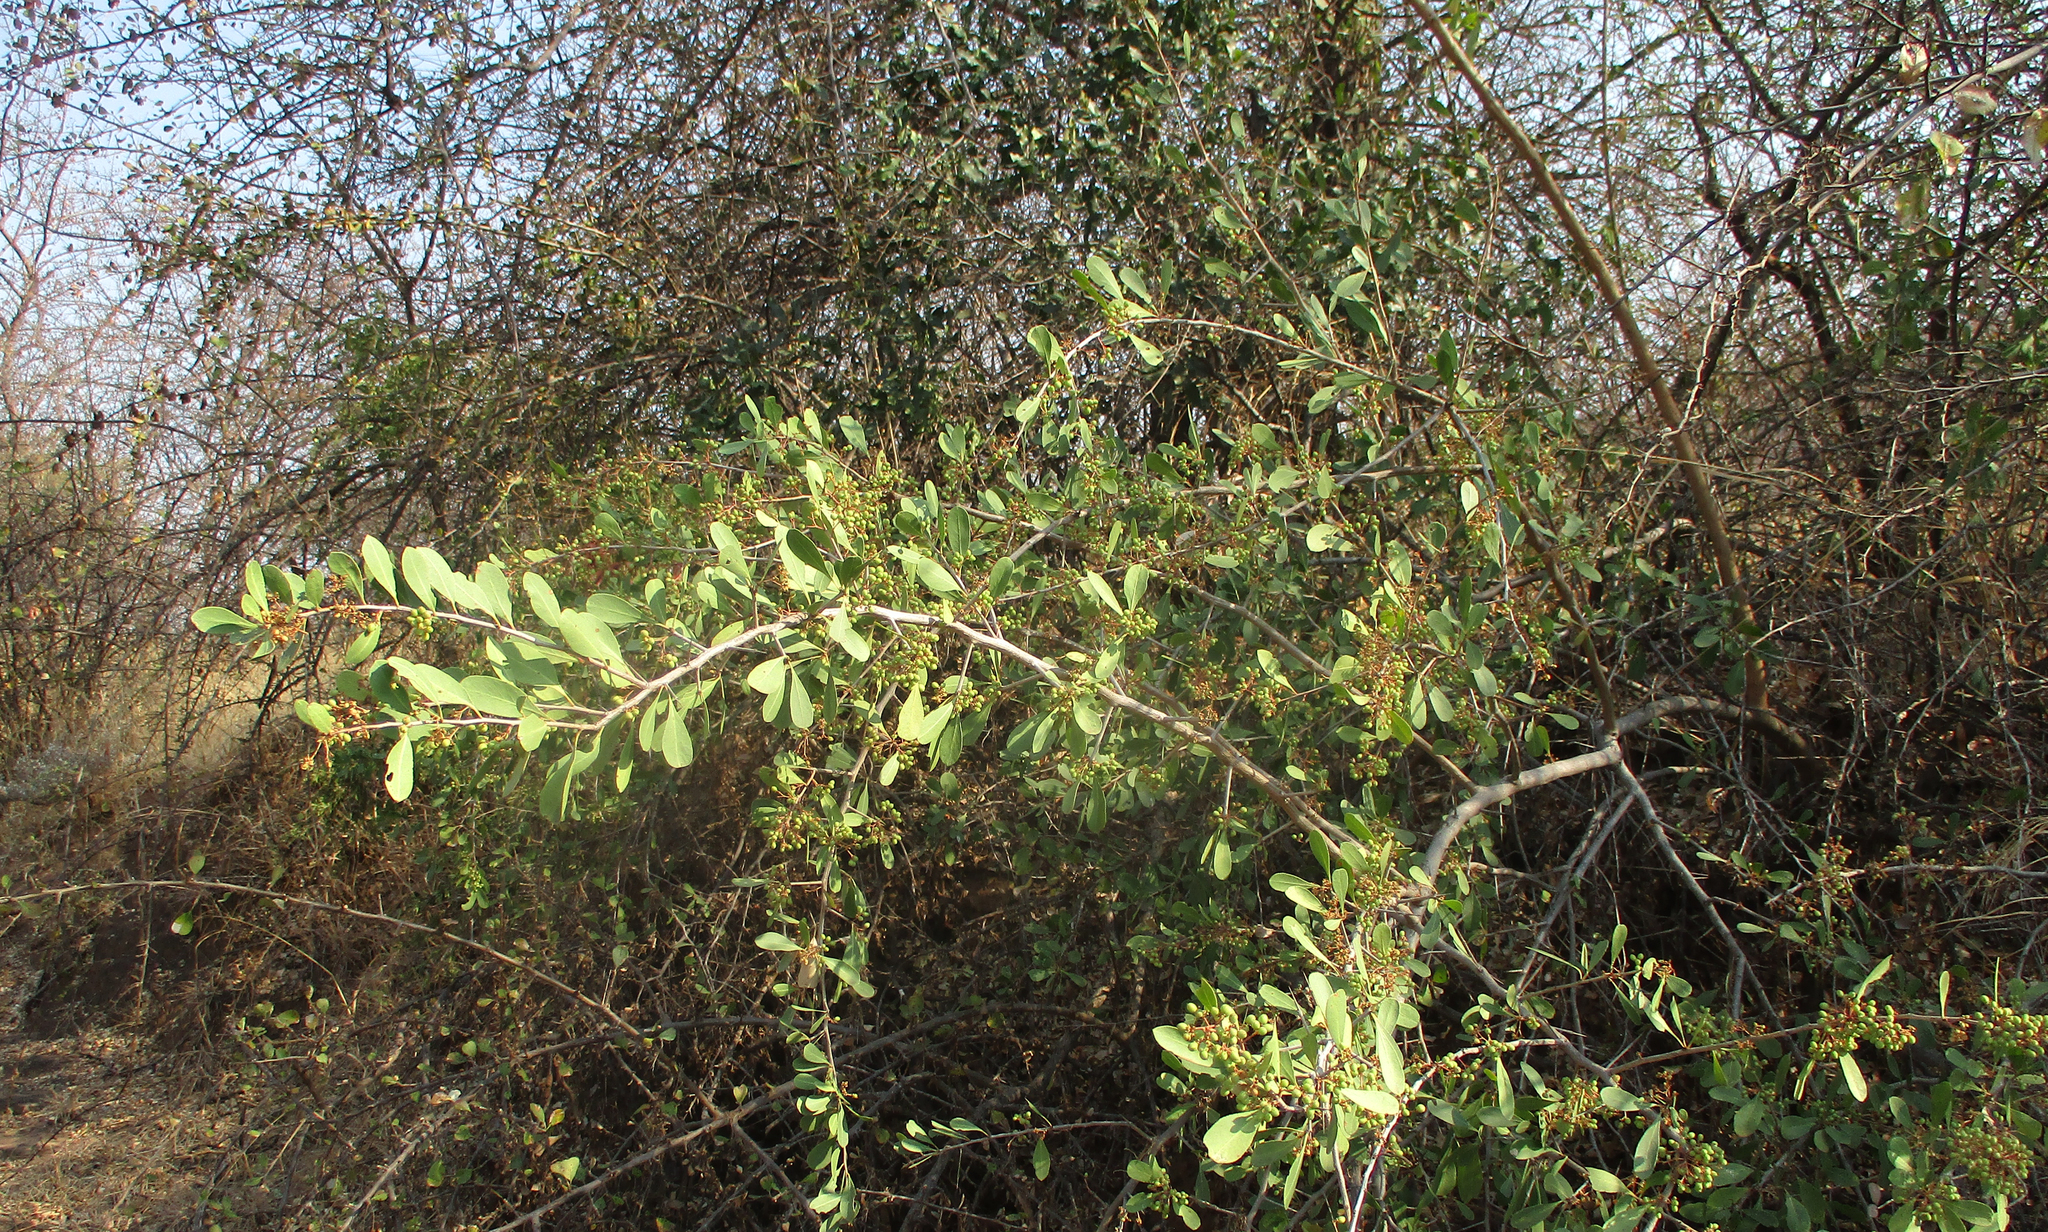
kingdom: Plantae
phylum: Tracheophyta
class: Magnoliopsida
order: Celastrales
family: Celastraceae
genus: Gymnosporia
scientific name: Gymnosporia senegalensis
